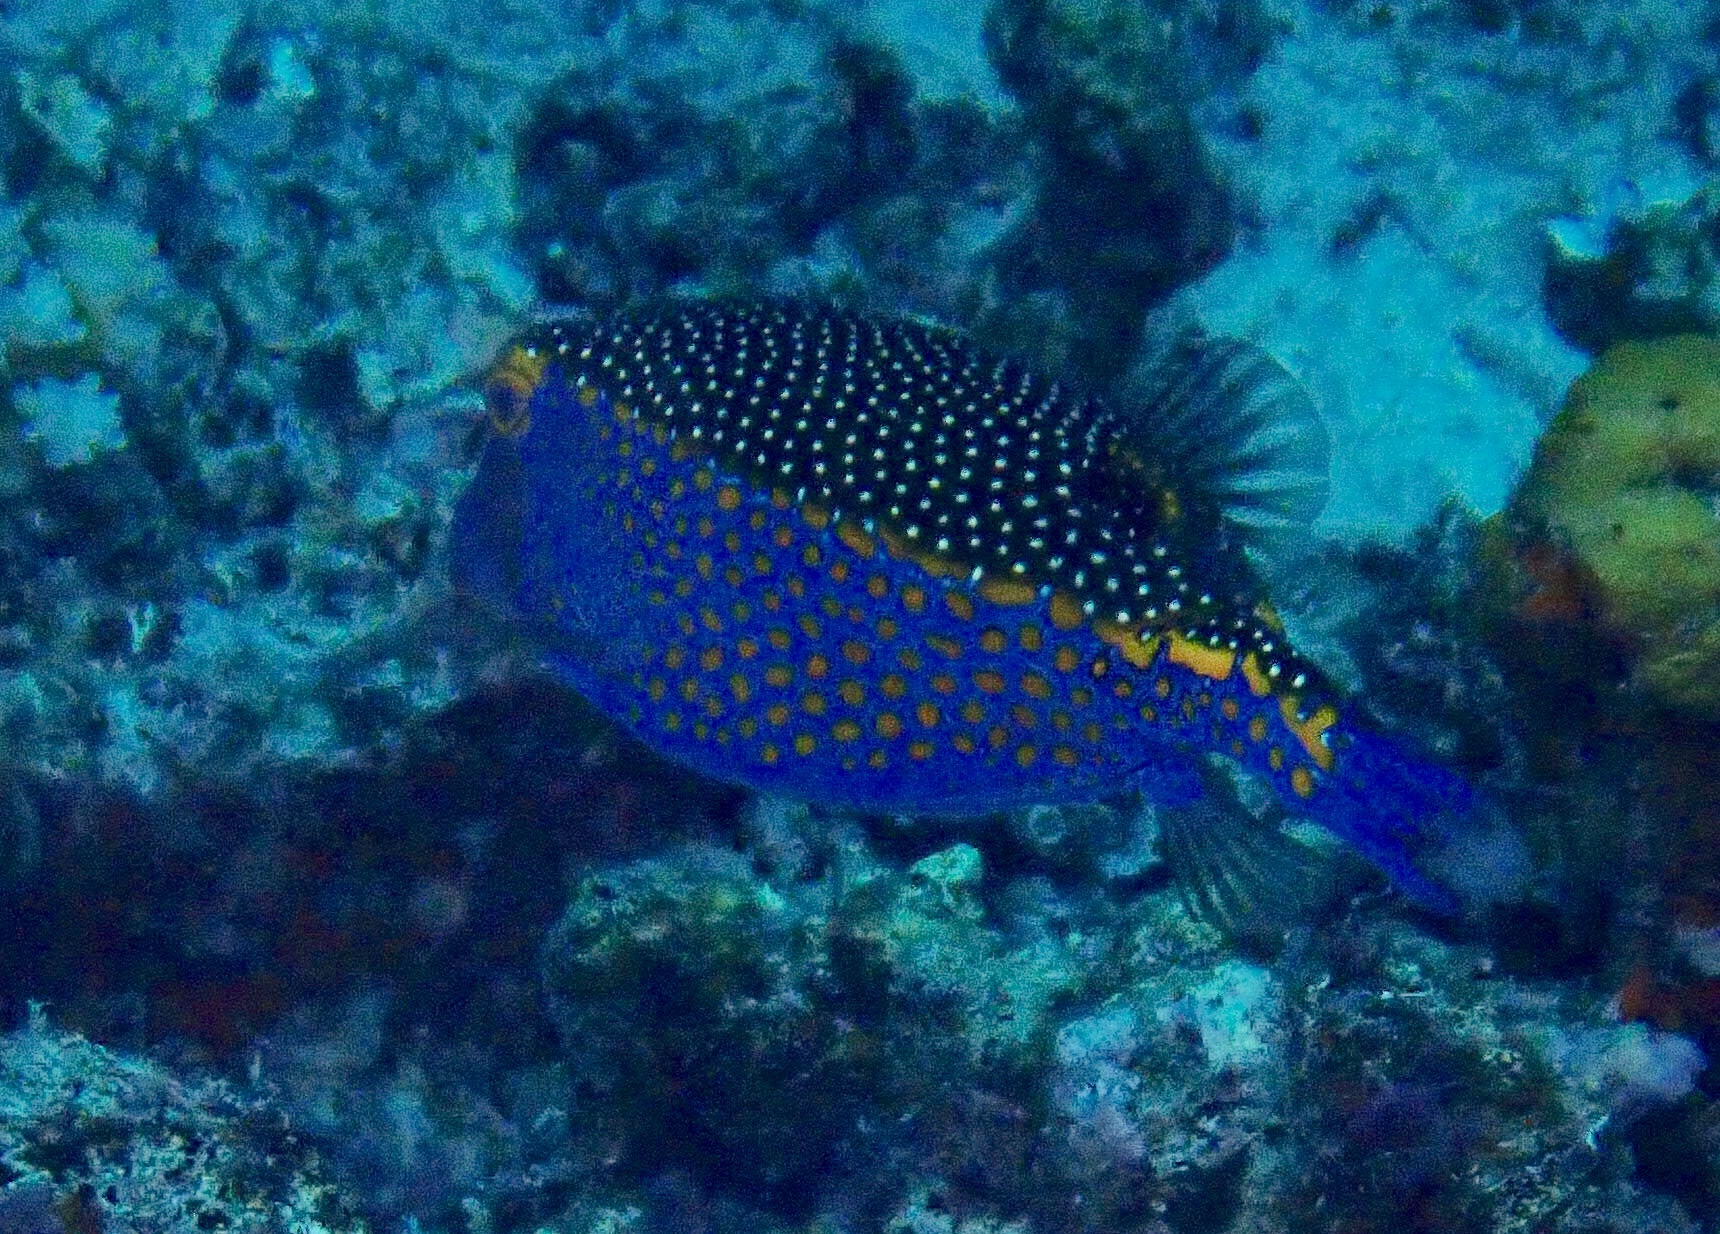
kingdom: Animalia
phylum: Chordata
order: Tetraodontiformes
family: Ostraciidae
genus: Ostracion
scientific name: Ostracion meleagris
